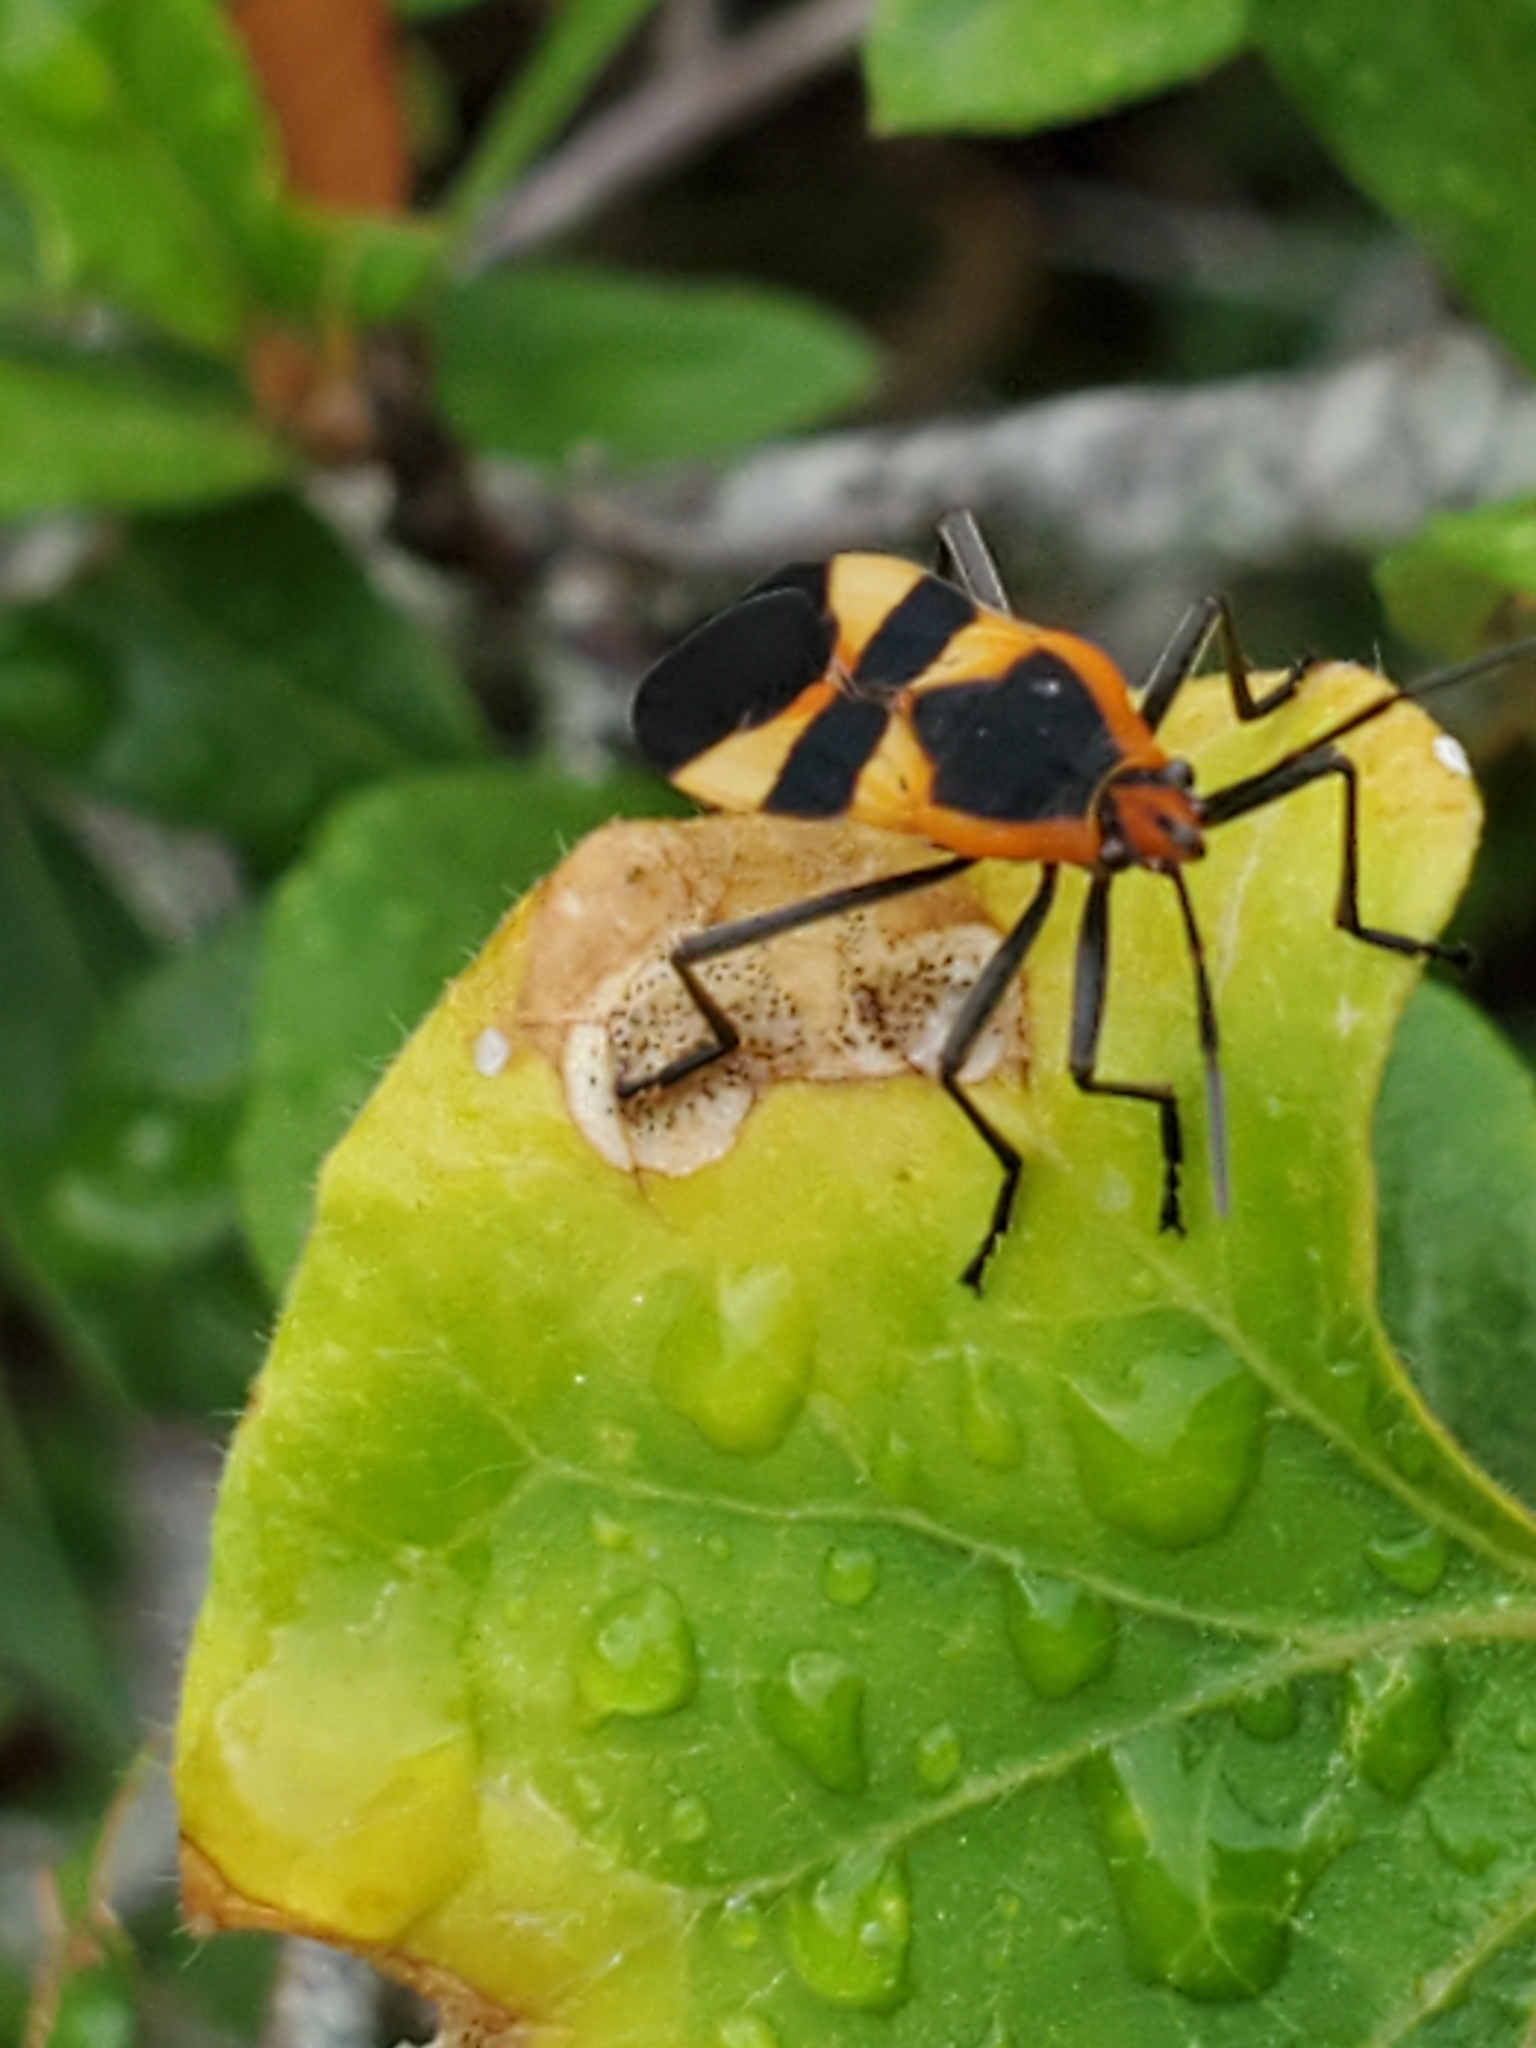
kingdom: Animalia
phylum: Arthropoda
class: Insecta
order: Hemiptera
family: Lygaeidae
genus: Oncopeltus
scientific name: Oncopeltus fasciatus
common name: Large milkweed bug
